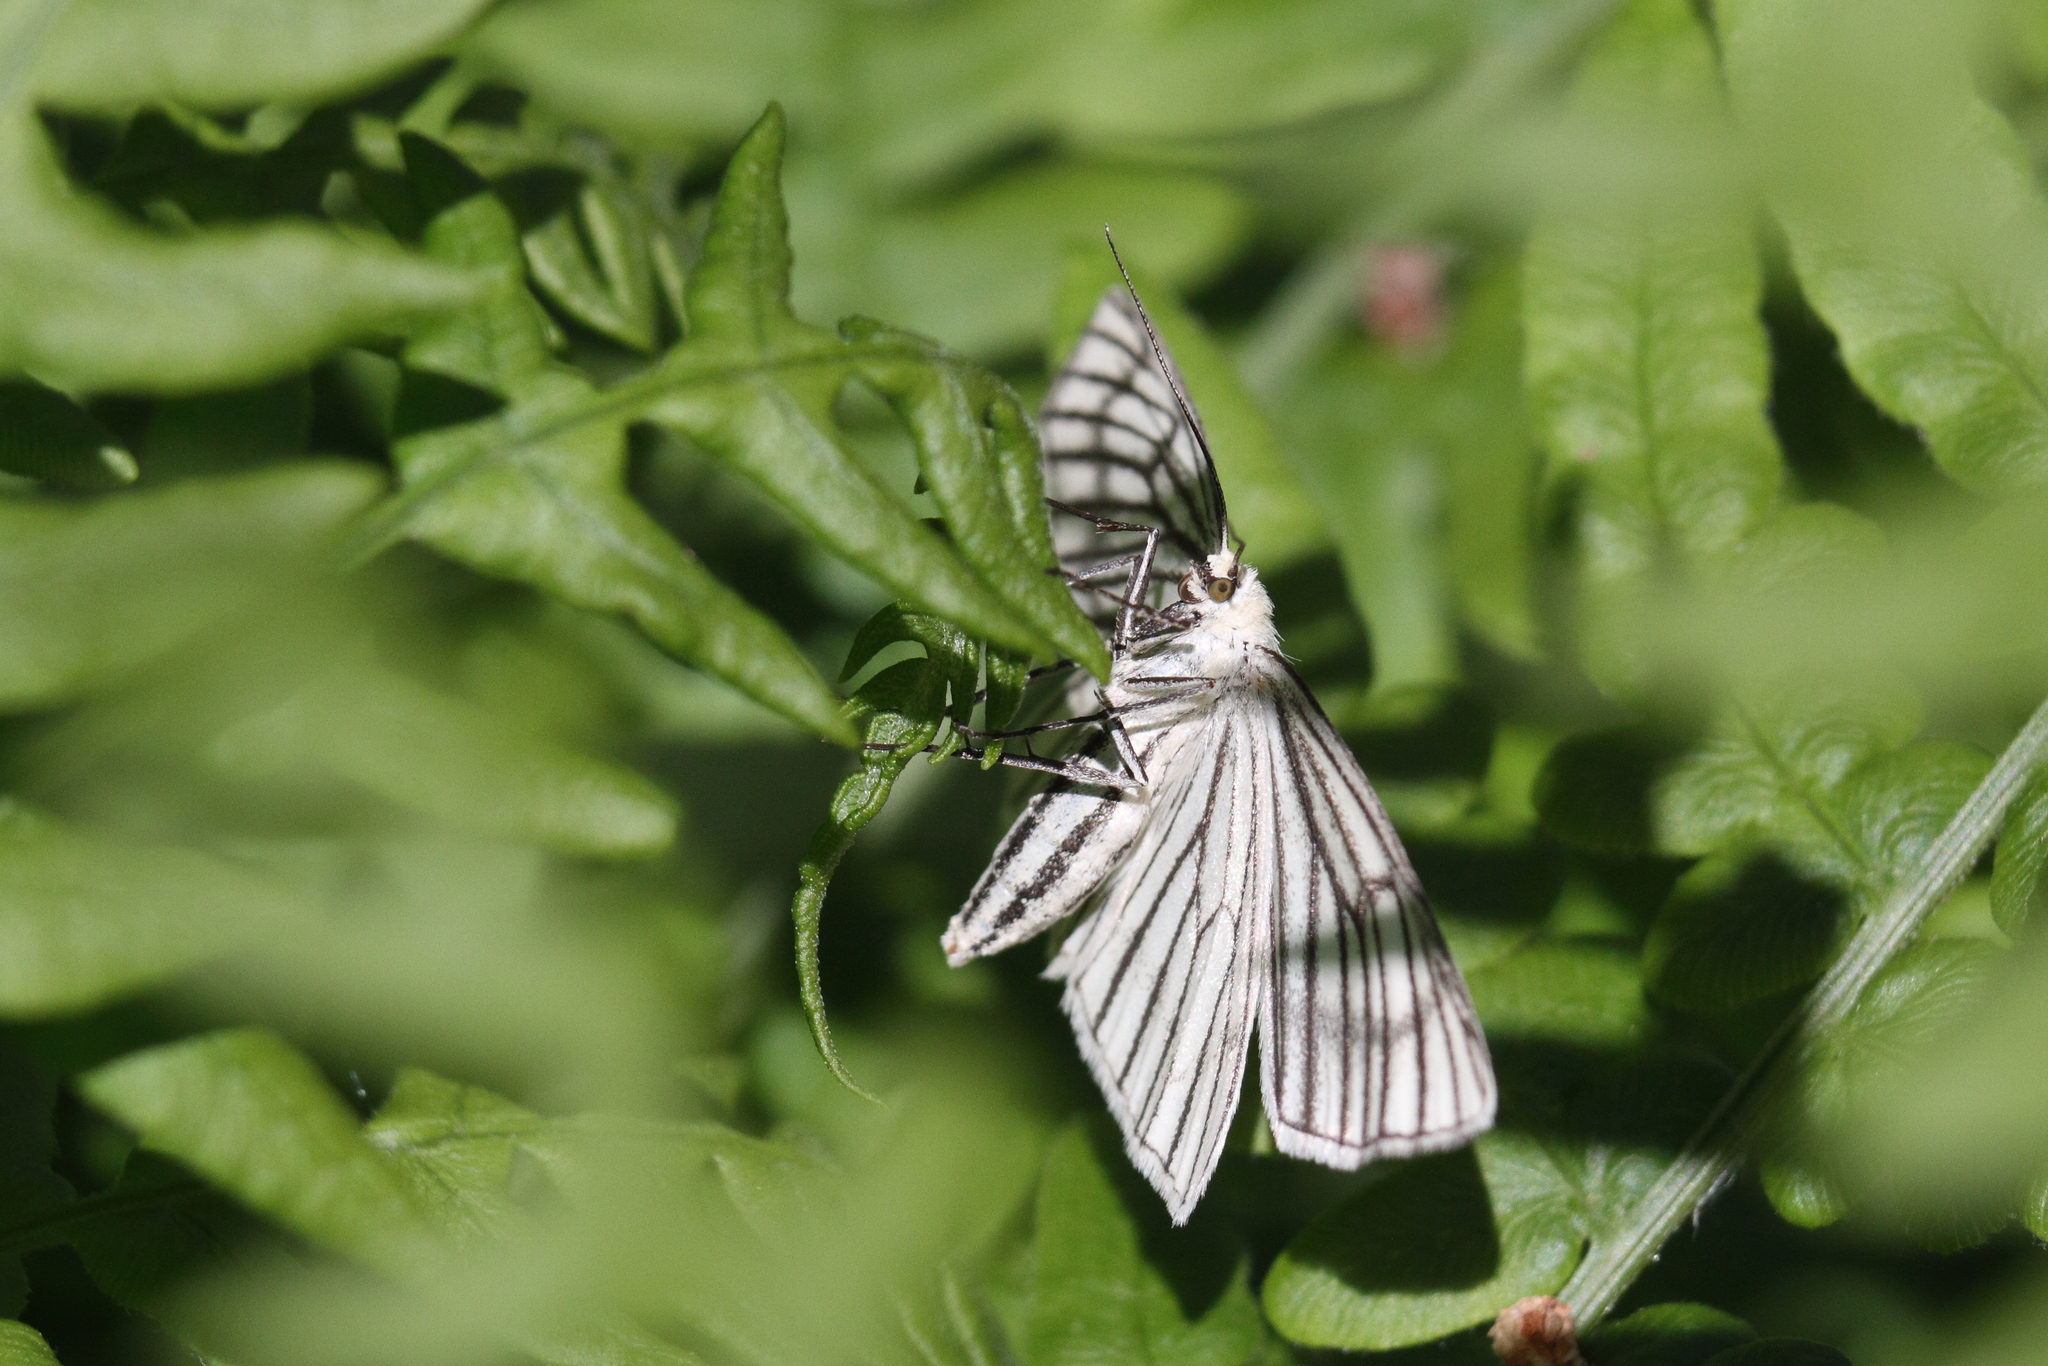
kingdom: Animalia
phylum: Arthropoda
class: Insecta
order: Lepidoptera
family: Geometridae
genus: Siona
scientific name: Siona lineata
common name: Black-veined moth
